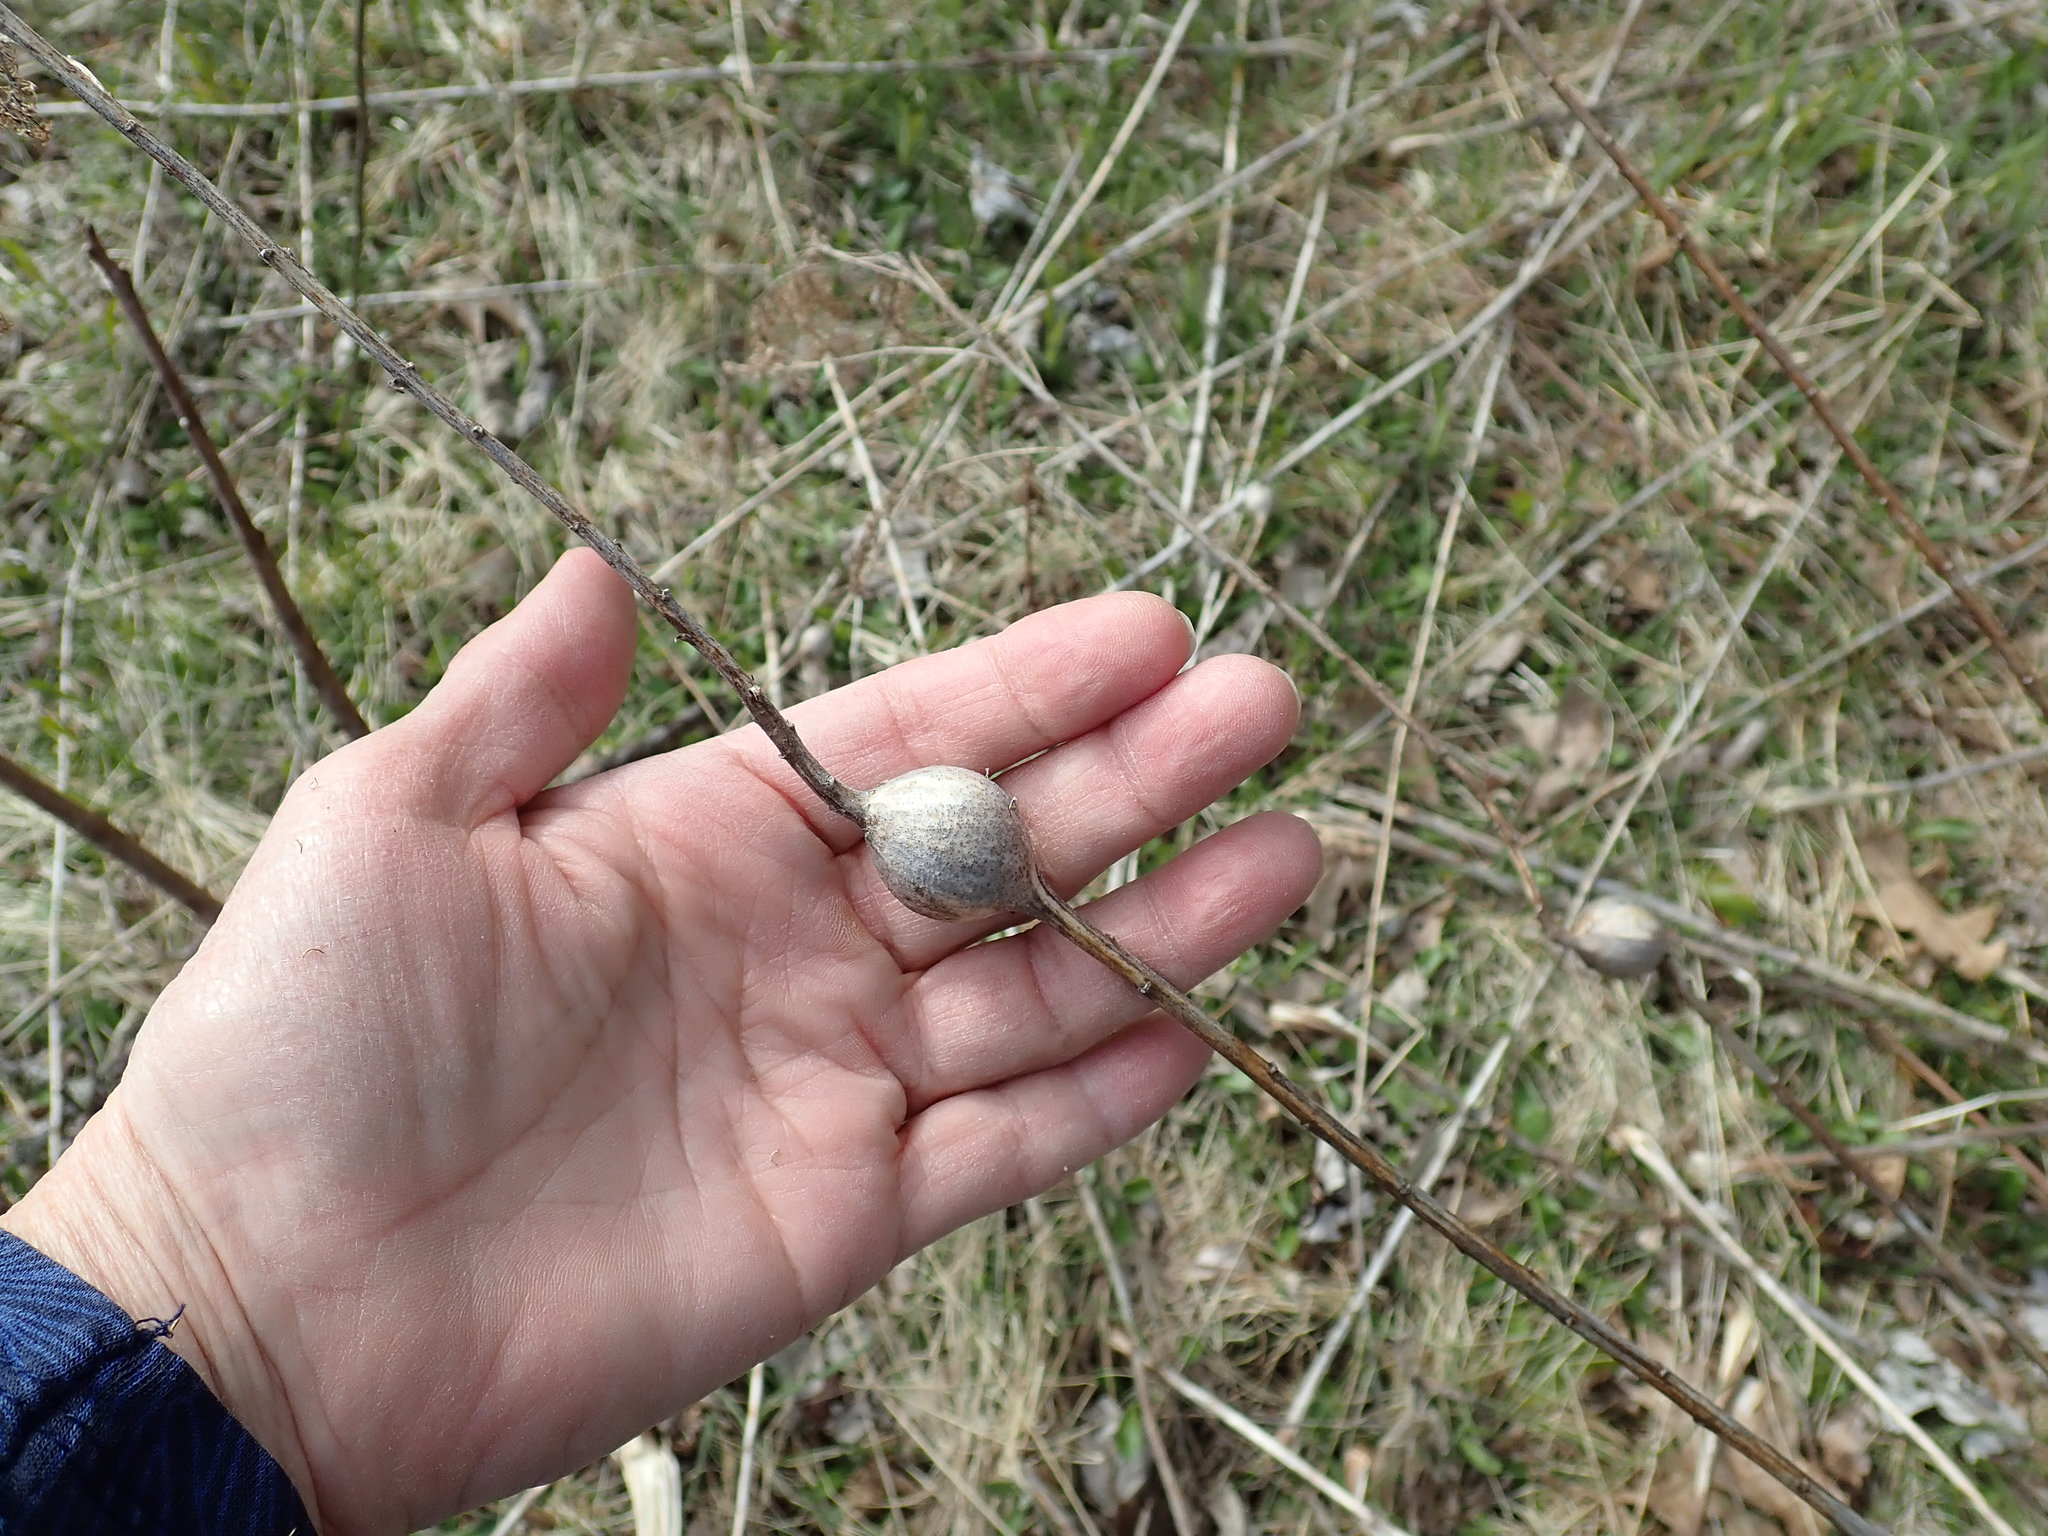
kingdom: Animalia
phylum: Arthropoda
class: Insecta
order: Diptera
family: Tephritidae
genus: Eurosta
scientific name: Eurosta solidaginis
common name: Goldenrod gall fly
